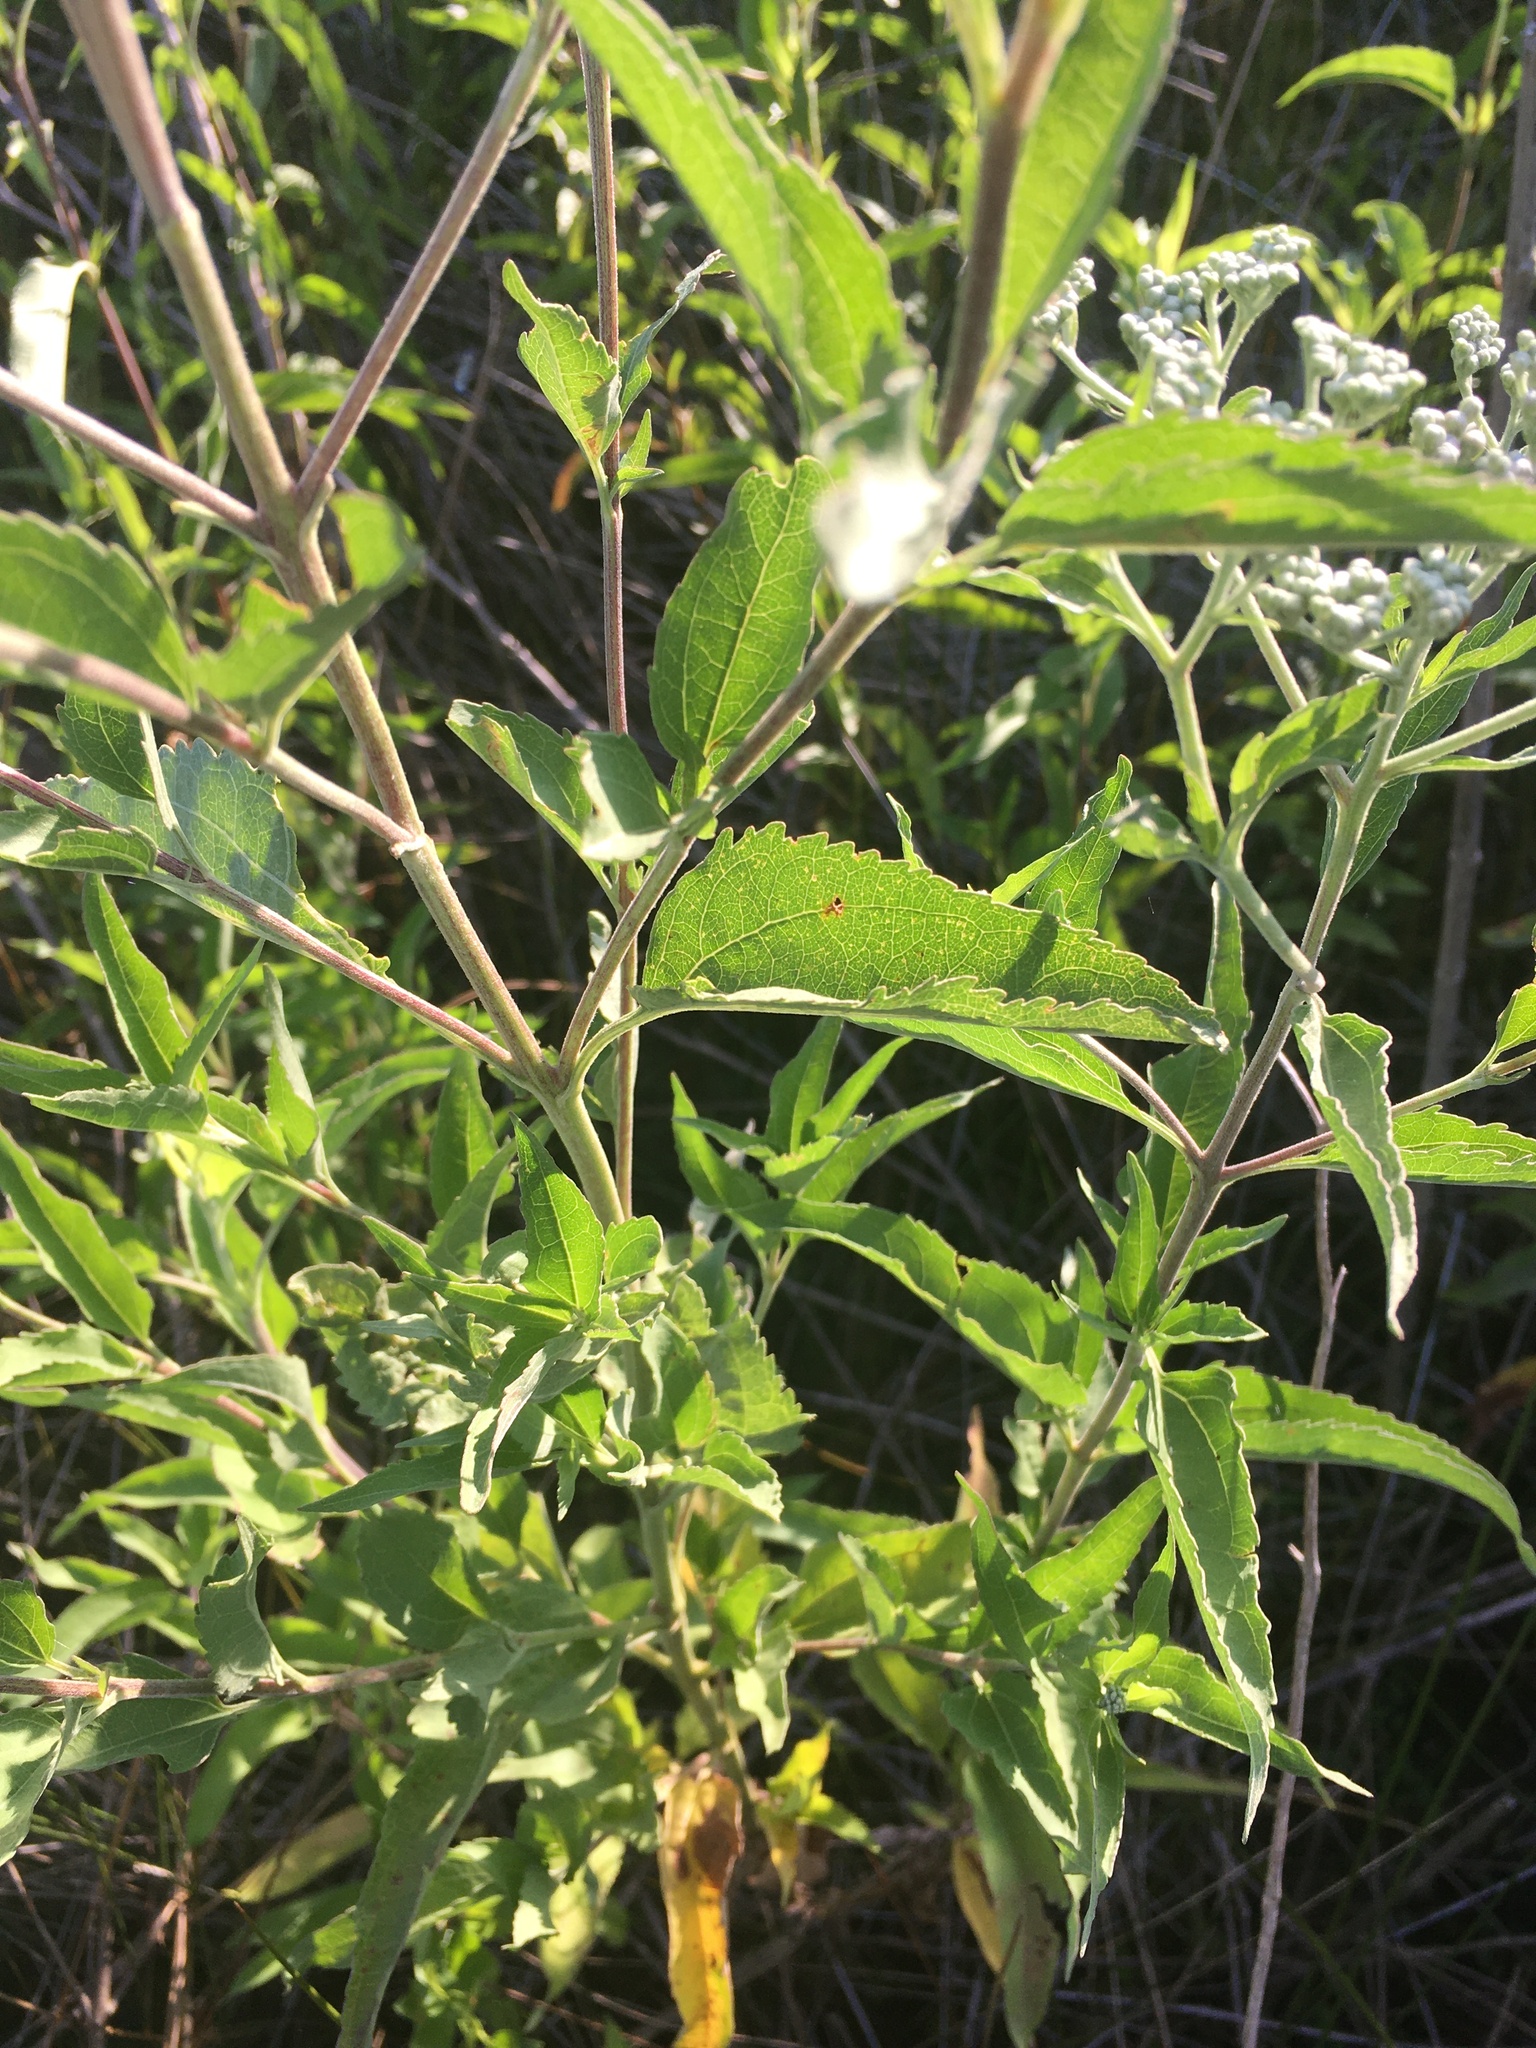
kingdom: Plantae
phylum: Tracheophyta
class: Magnoliopsida
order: Asterales
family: Asteraceae
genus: Eupatorium
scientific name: Eupatorium serotinum
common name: Late boneset
